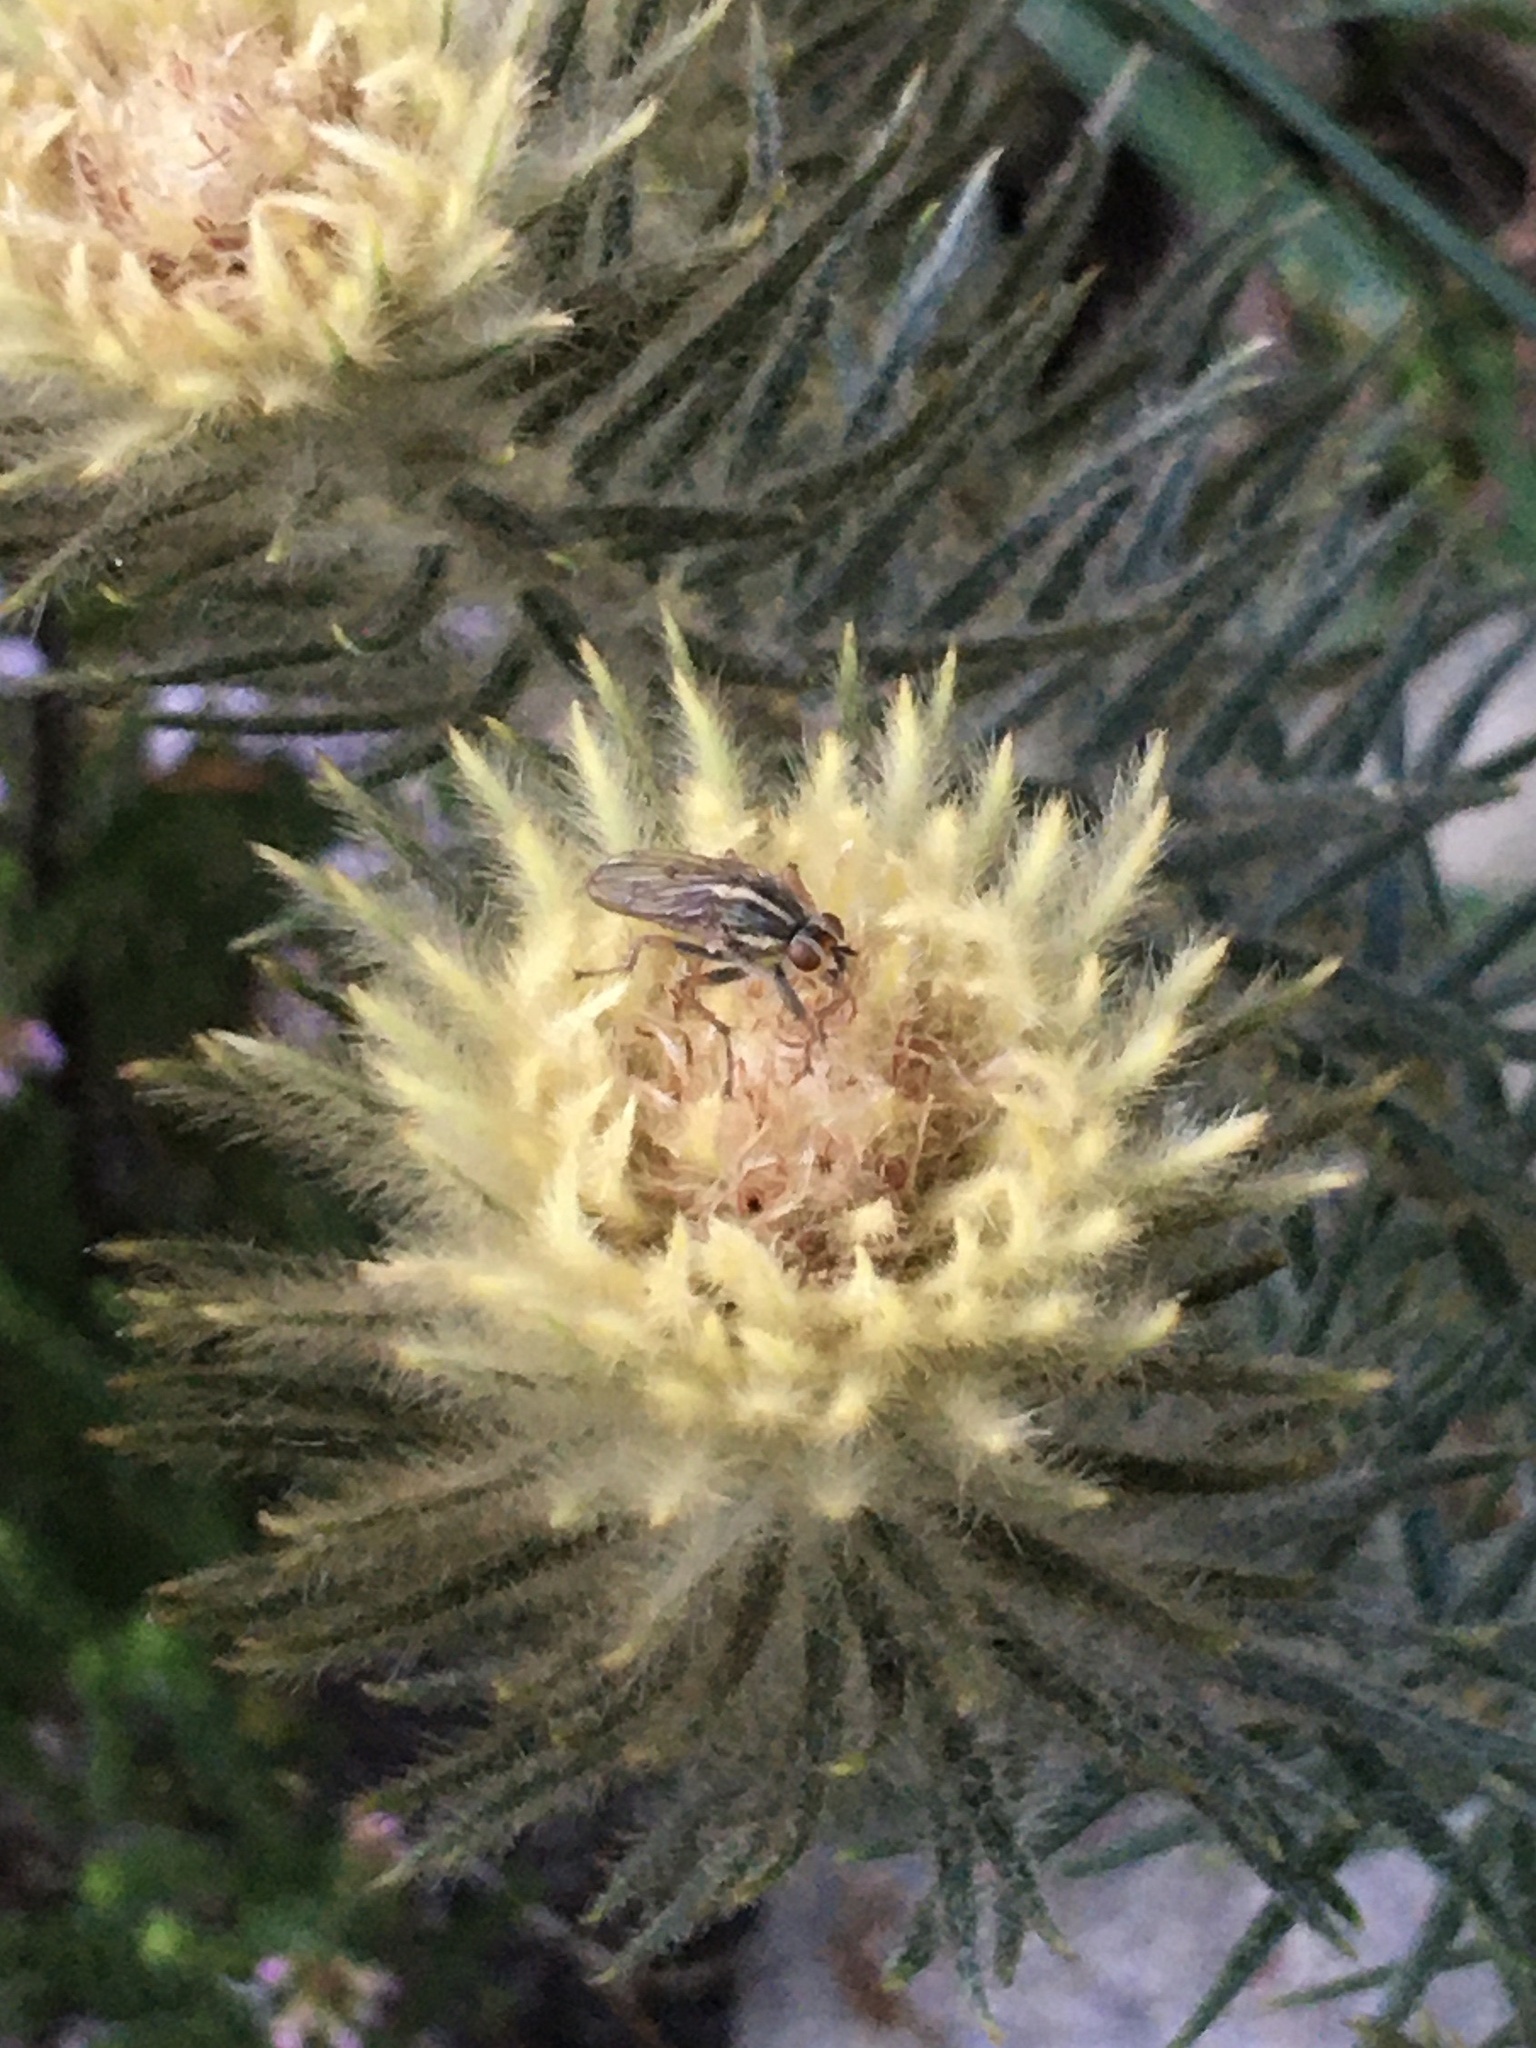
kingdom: Animalia
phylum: Arthropoda
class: Insecta
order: Diptera
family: Scathophagidae
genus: Scathophaga
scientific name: Scathophaga soror
